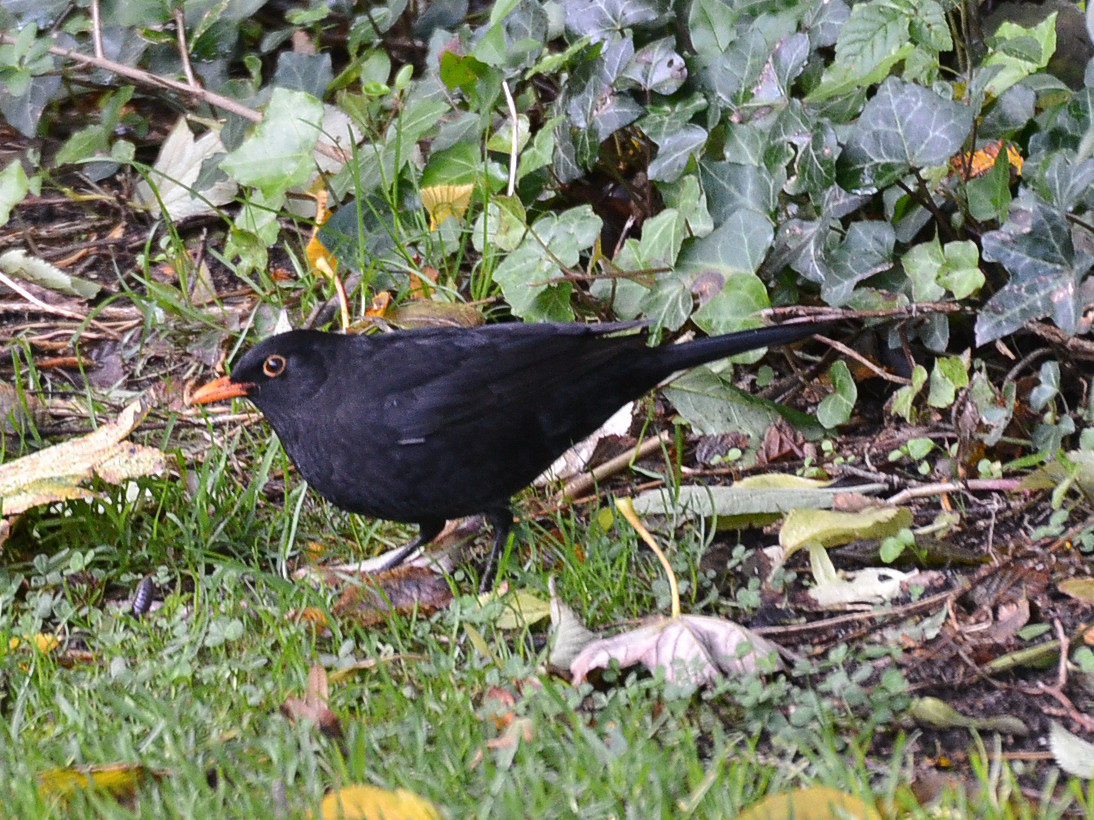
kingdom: Animalia
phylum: Chordata
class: Aves
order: Passeriformes
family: Turdidae
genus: Turdus
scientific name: Turdus merula
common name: Common blackbird
